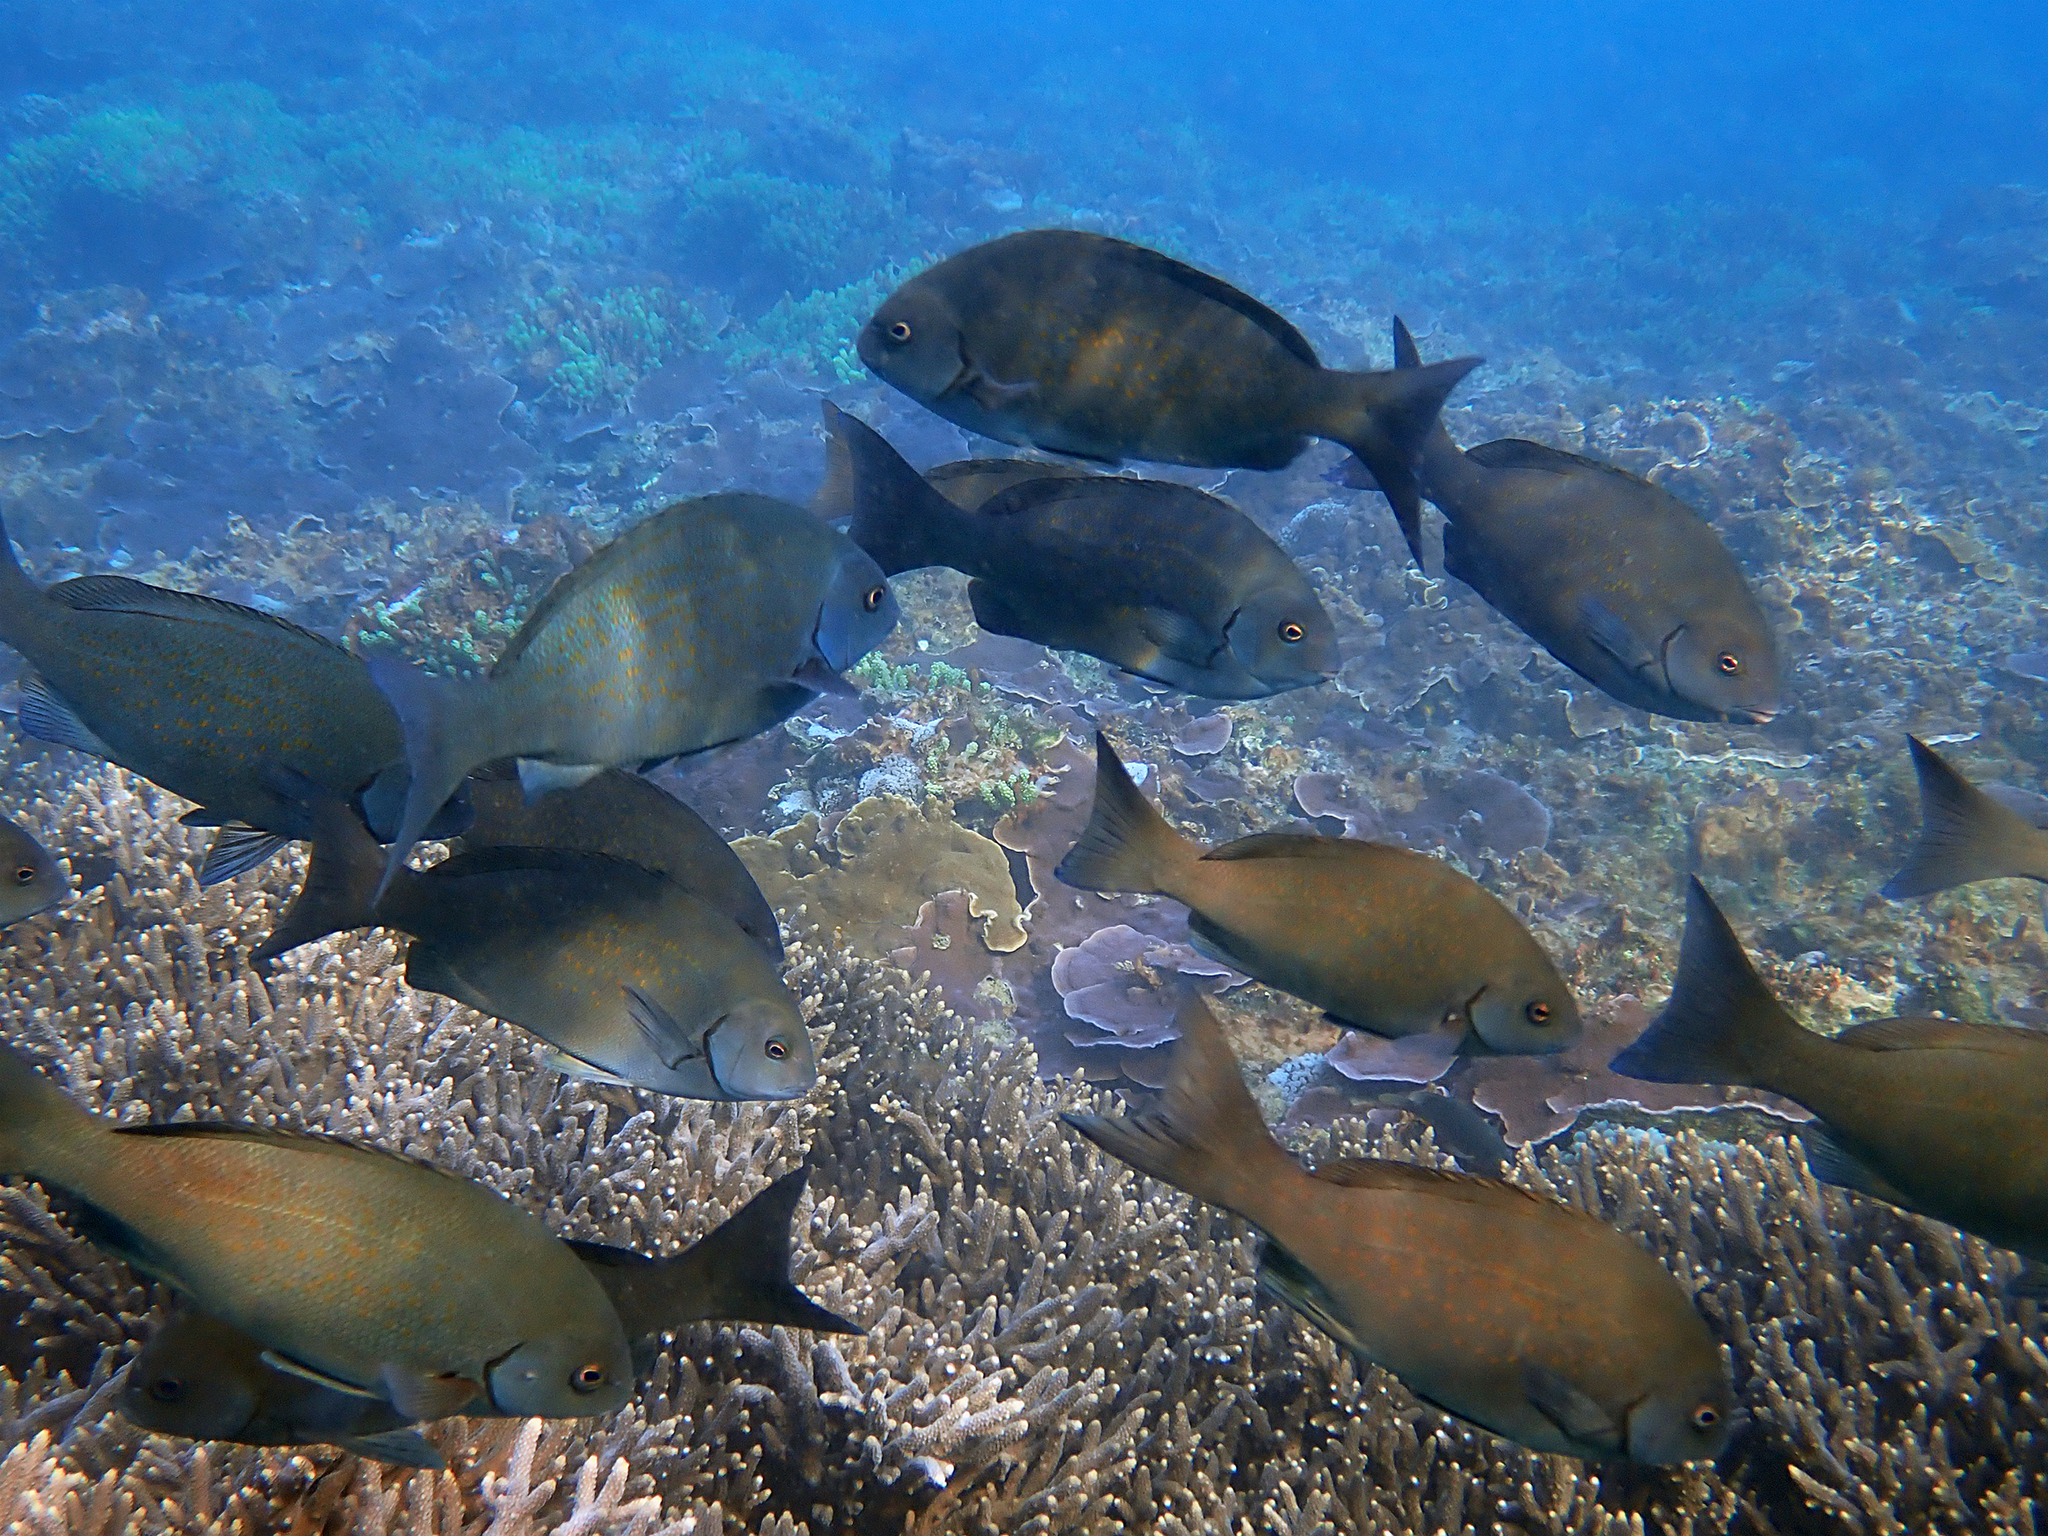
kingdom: Animalia
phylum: Chordata
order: Perciformes
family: Kyphosidae
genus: Girella
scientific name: Girella cyanea
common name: Bluefish
